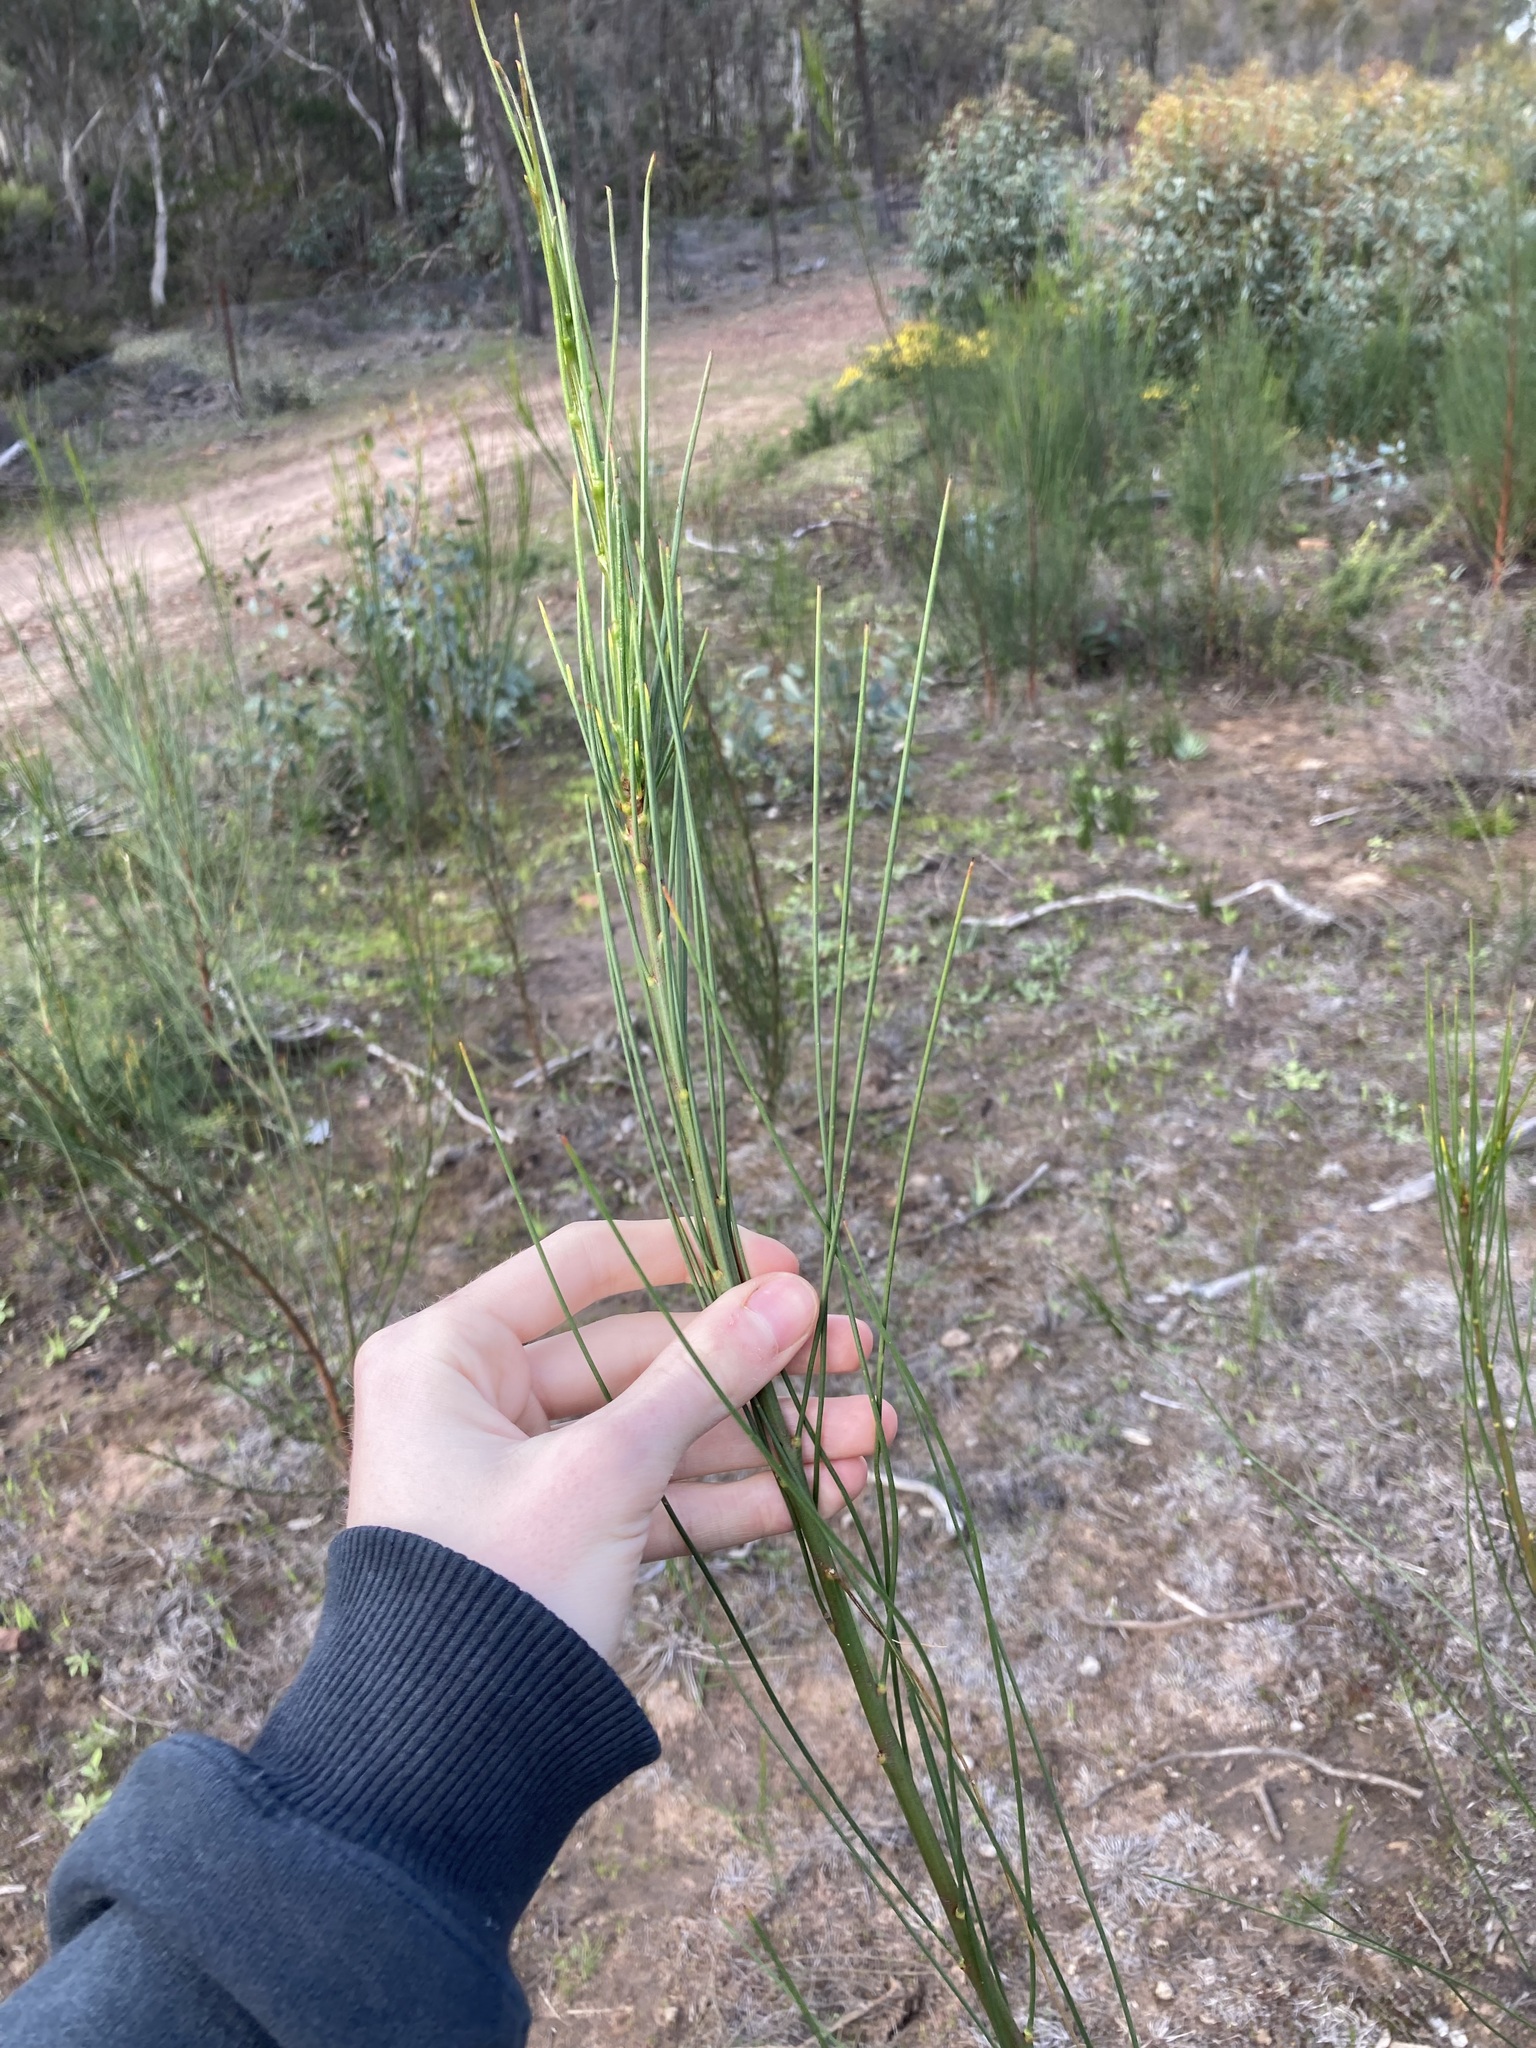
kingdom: Plantae
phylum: Tracheophyta
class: Magnoliopsida
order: Fabales
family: Fabaceae
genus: Viminaria
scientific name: Viminaria juncea
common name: Golden spray
